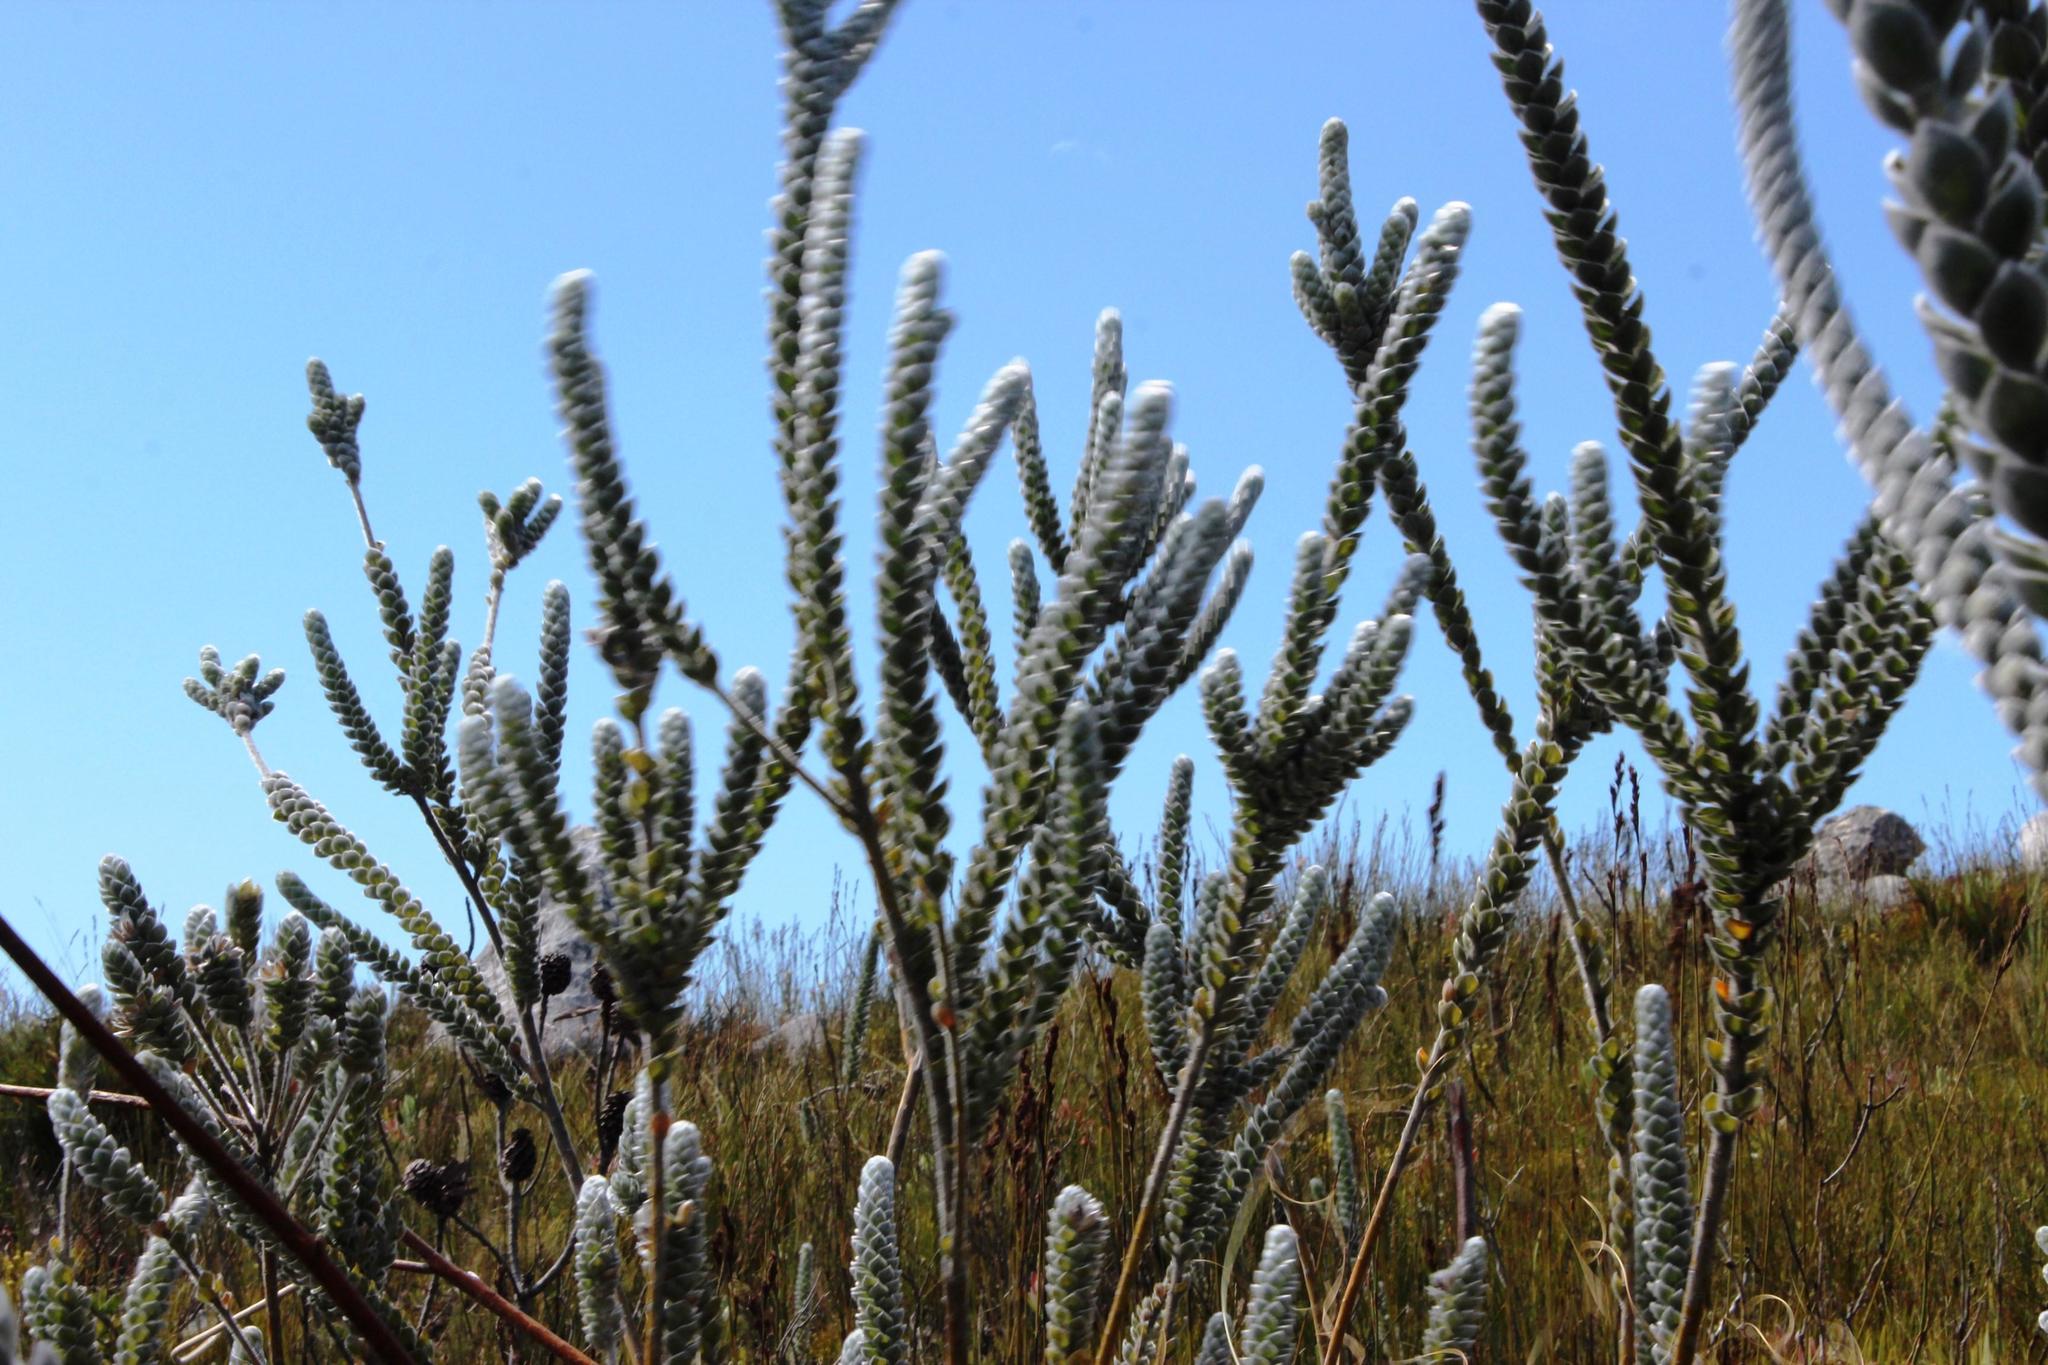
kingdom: Plantae
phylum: Tracheophyta
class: Magnoliopsida
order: Fabales
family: Fabaceae
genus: Liparia
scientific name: Liparia vestita
